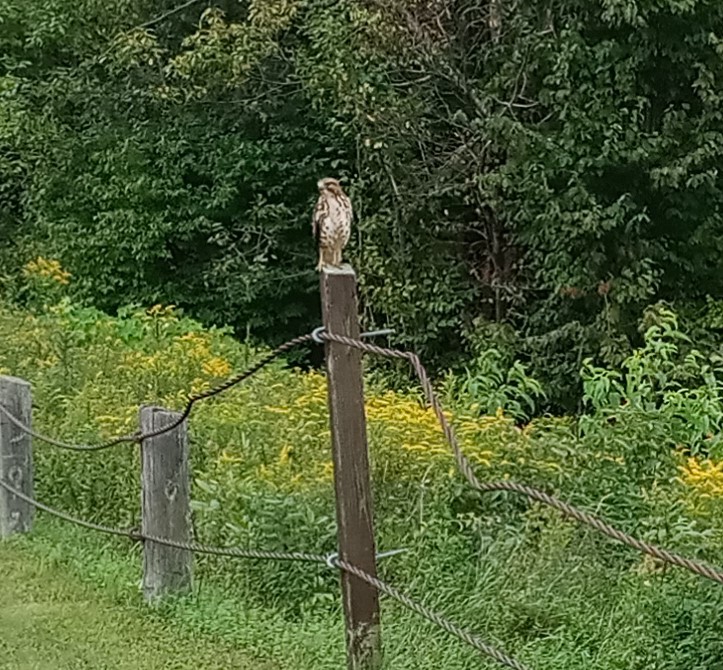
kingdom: Animalia
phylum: Chordata
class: Aves
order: Accipitriformes
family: Accipitridae
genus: Buteo
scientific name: Buteo platypterus
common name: Broad-winged hawk
